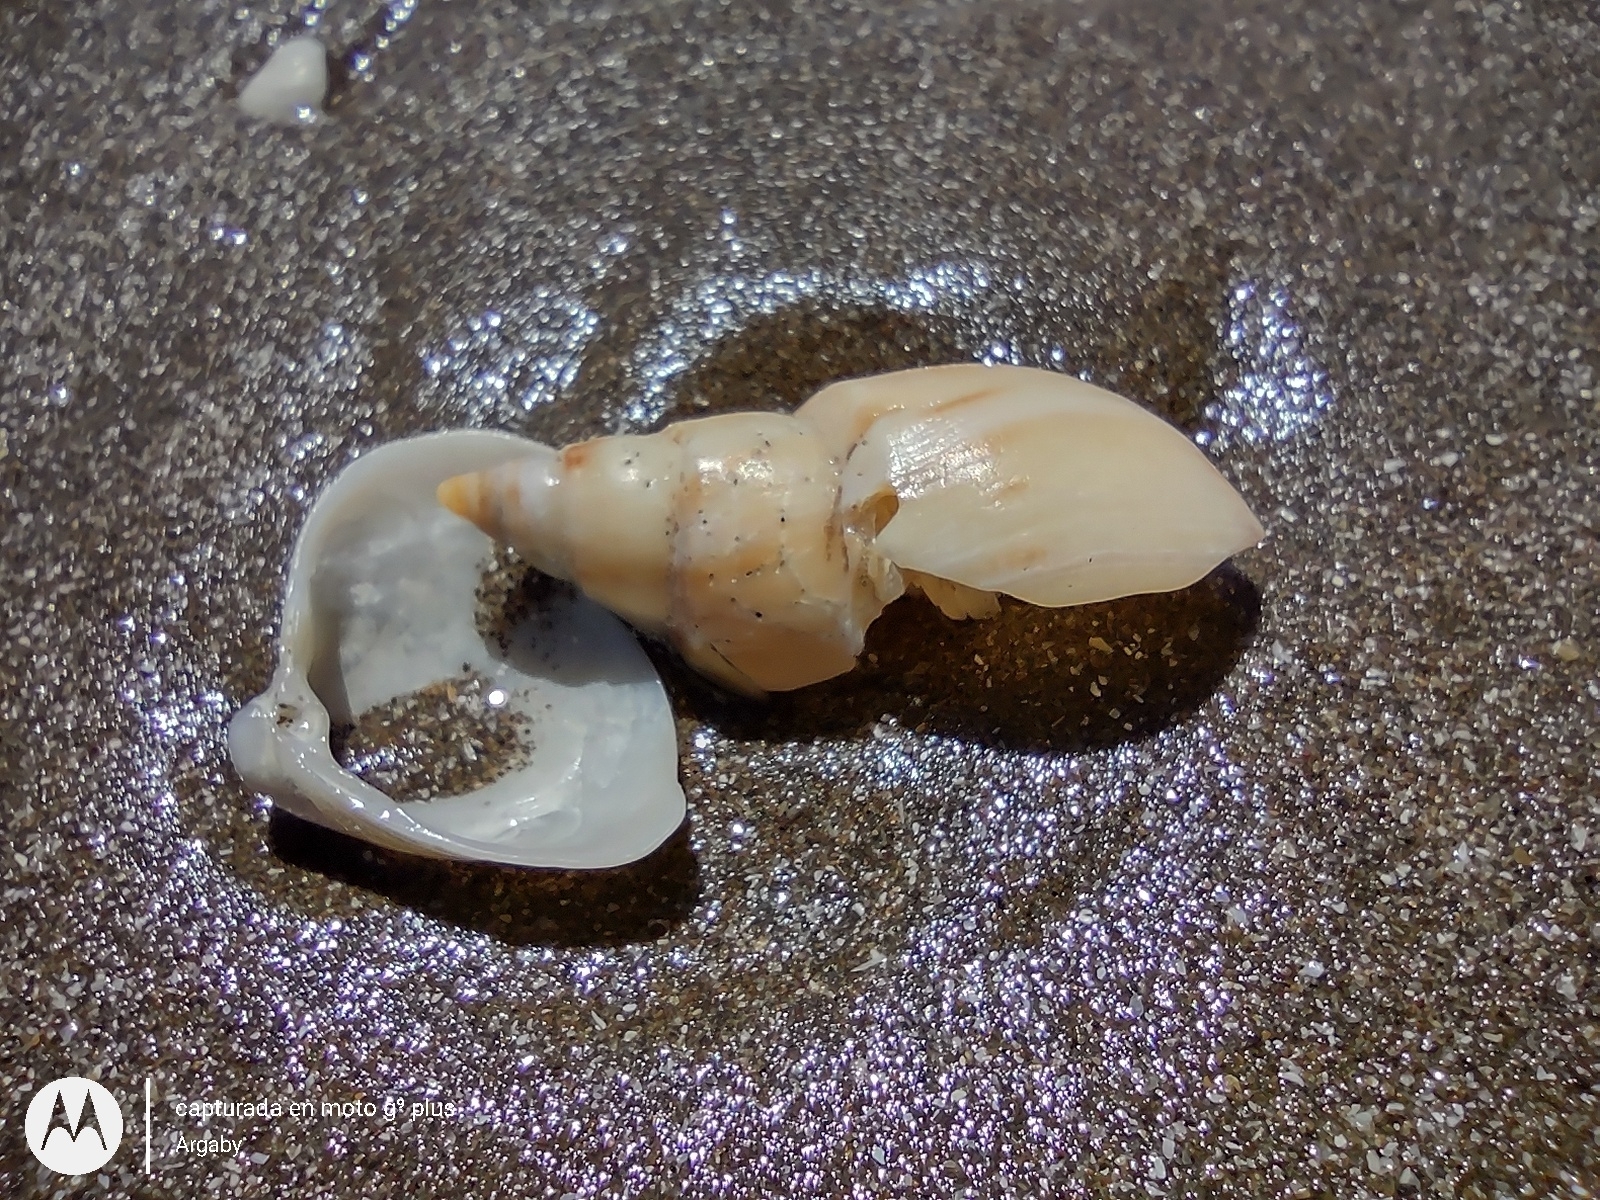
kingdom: Animalia
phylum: Mollusca
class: Gastropoda
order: Neogastropoda
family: Buccinanopsidae
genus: Buccinanops
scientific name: Buccinanops cochlidium
